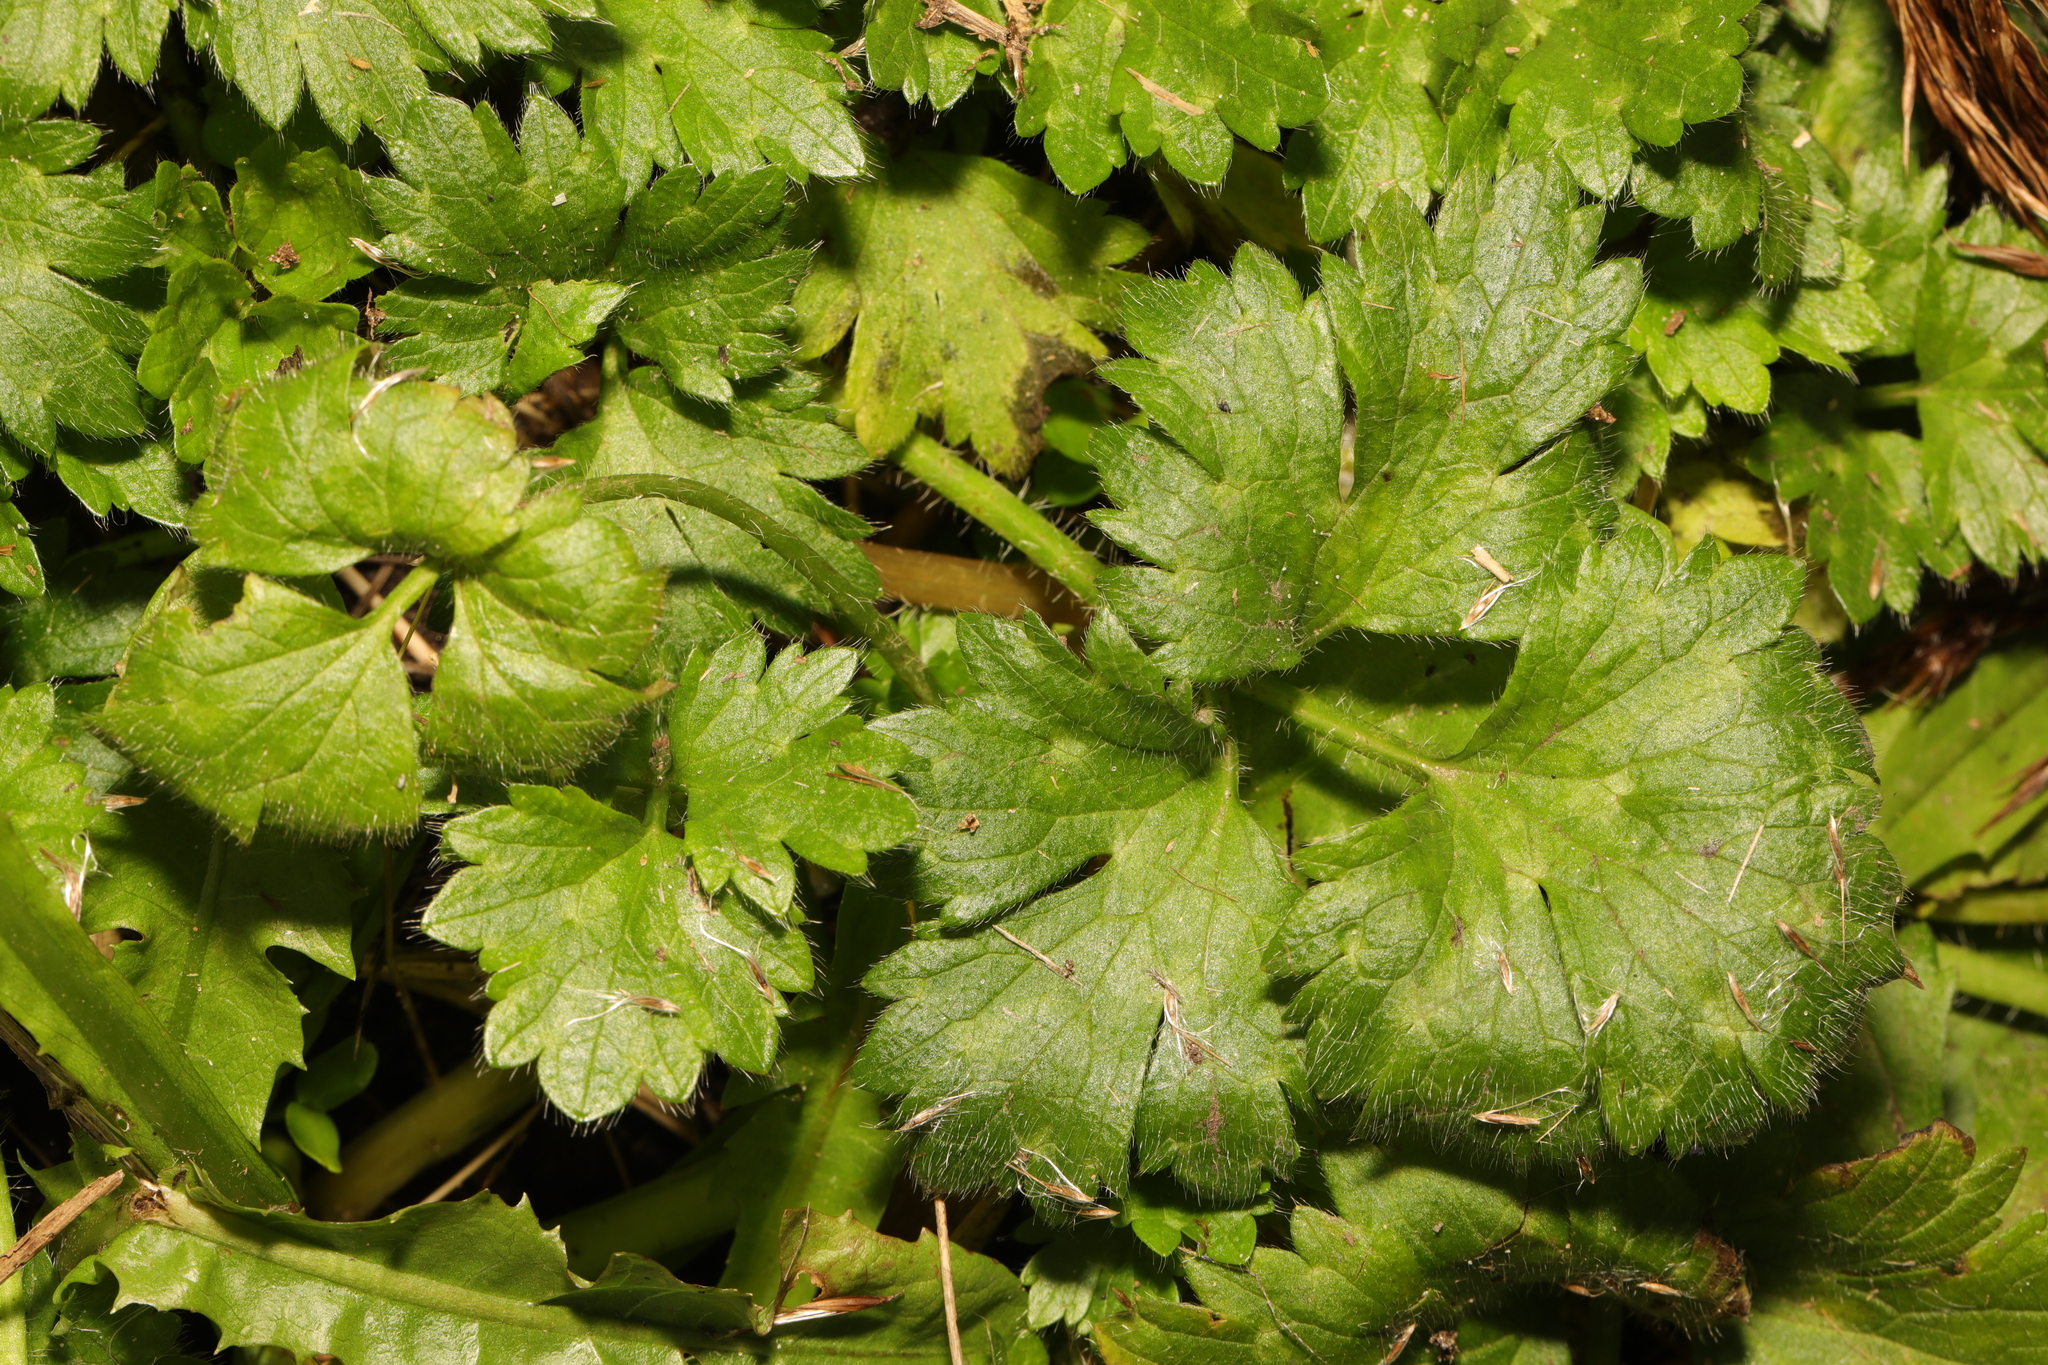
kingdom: Plantae
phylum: Tracheophyta
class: Magnoliopsida
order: Ranunculales
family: Ranunculaceae
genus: Ranunculus
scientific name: Ranunculus repens
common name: Creeping buttercup
